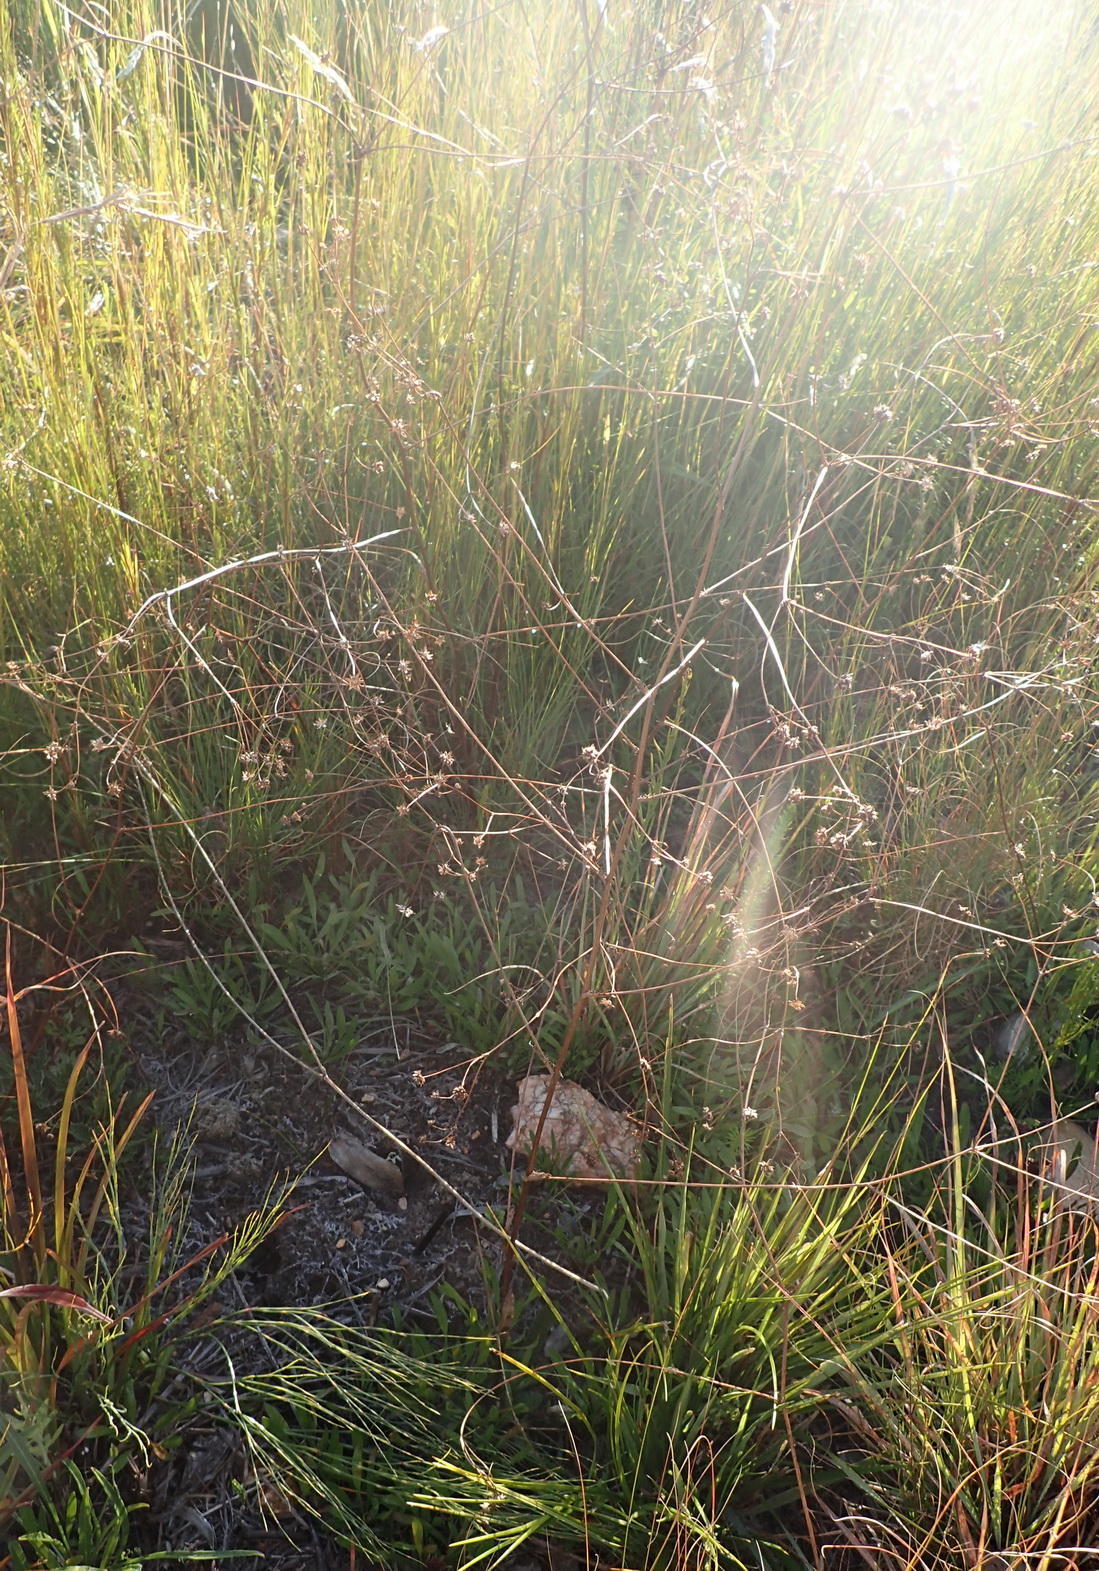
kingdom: Plantae
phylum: Tracheophyta
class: Magnoliopsida
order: Apiales
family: Apiaceae
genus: Alepidea
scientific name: Alepidea capensis
